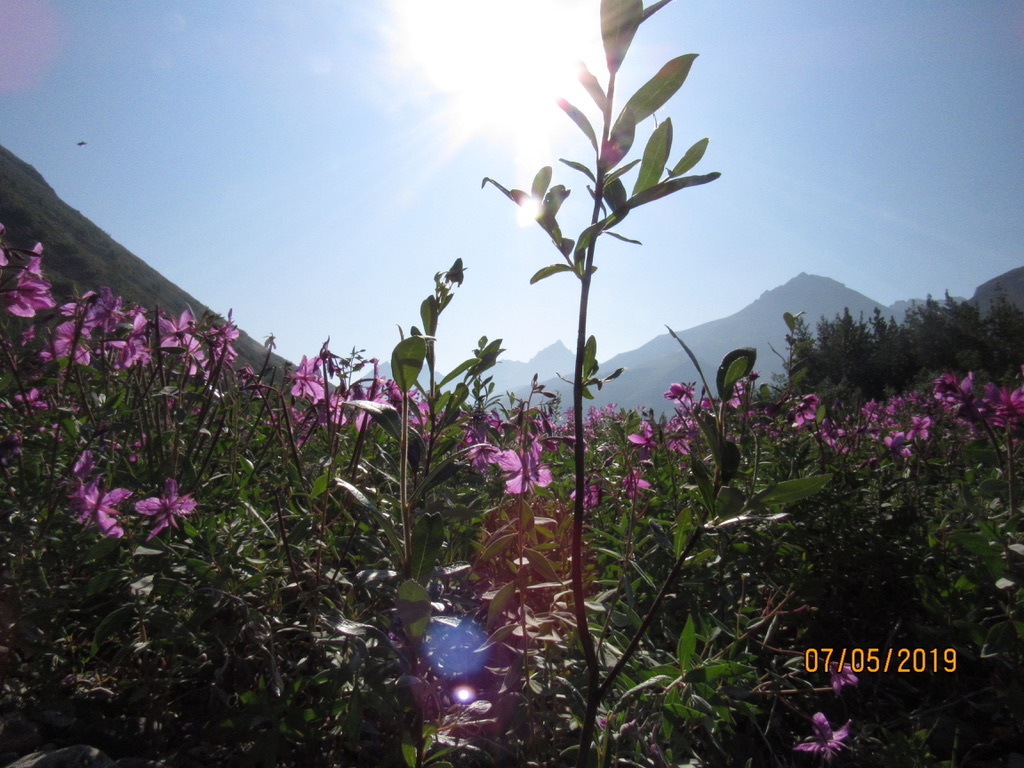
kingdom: Plantae
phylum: Tracheophyta
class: Magnoliopsida
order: Myrtales
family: Onagraceae
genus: Chamaenerion
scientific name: Chamaenerion latifolium
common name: Dwarf fireweed
